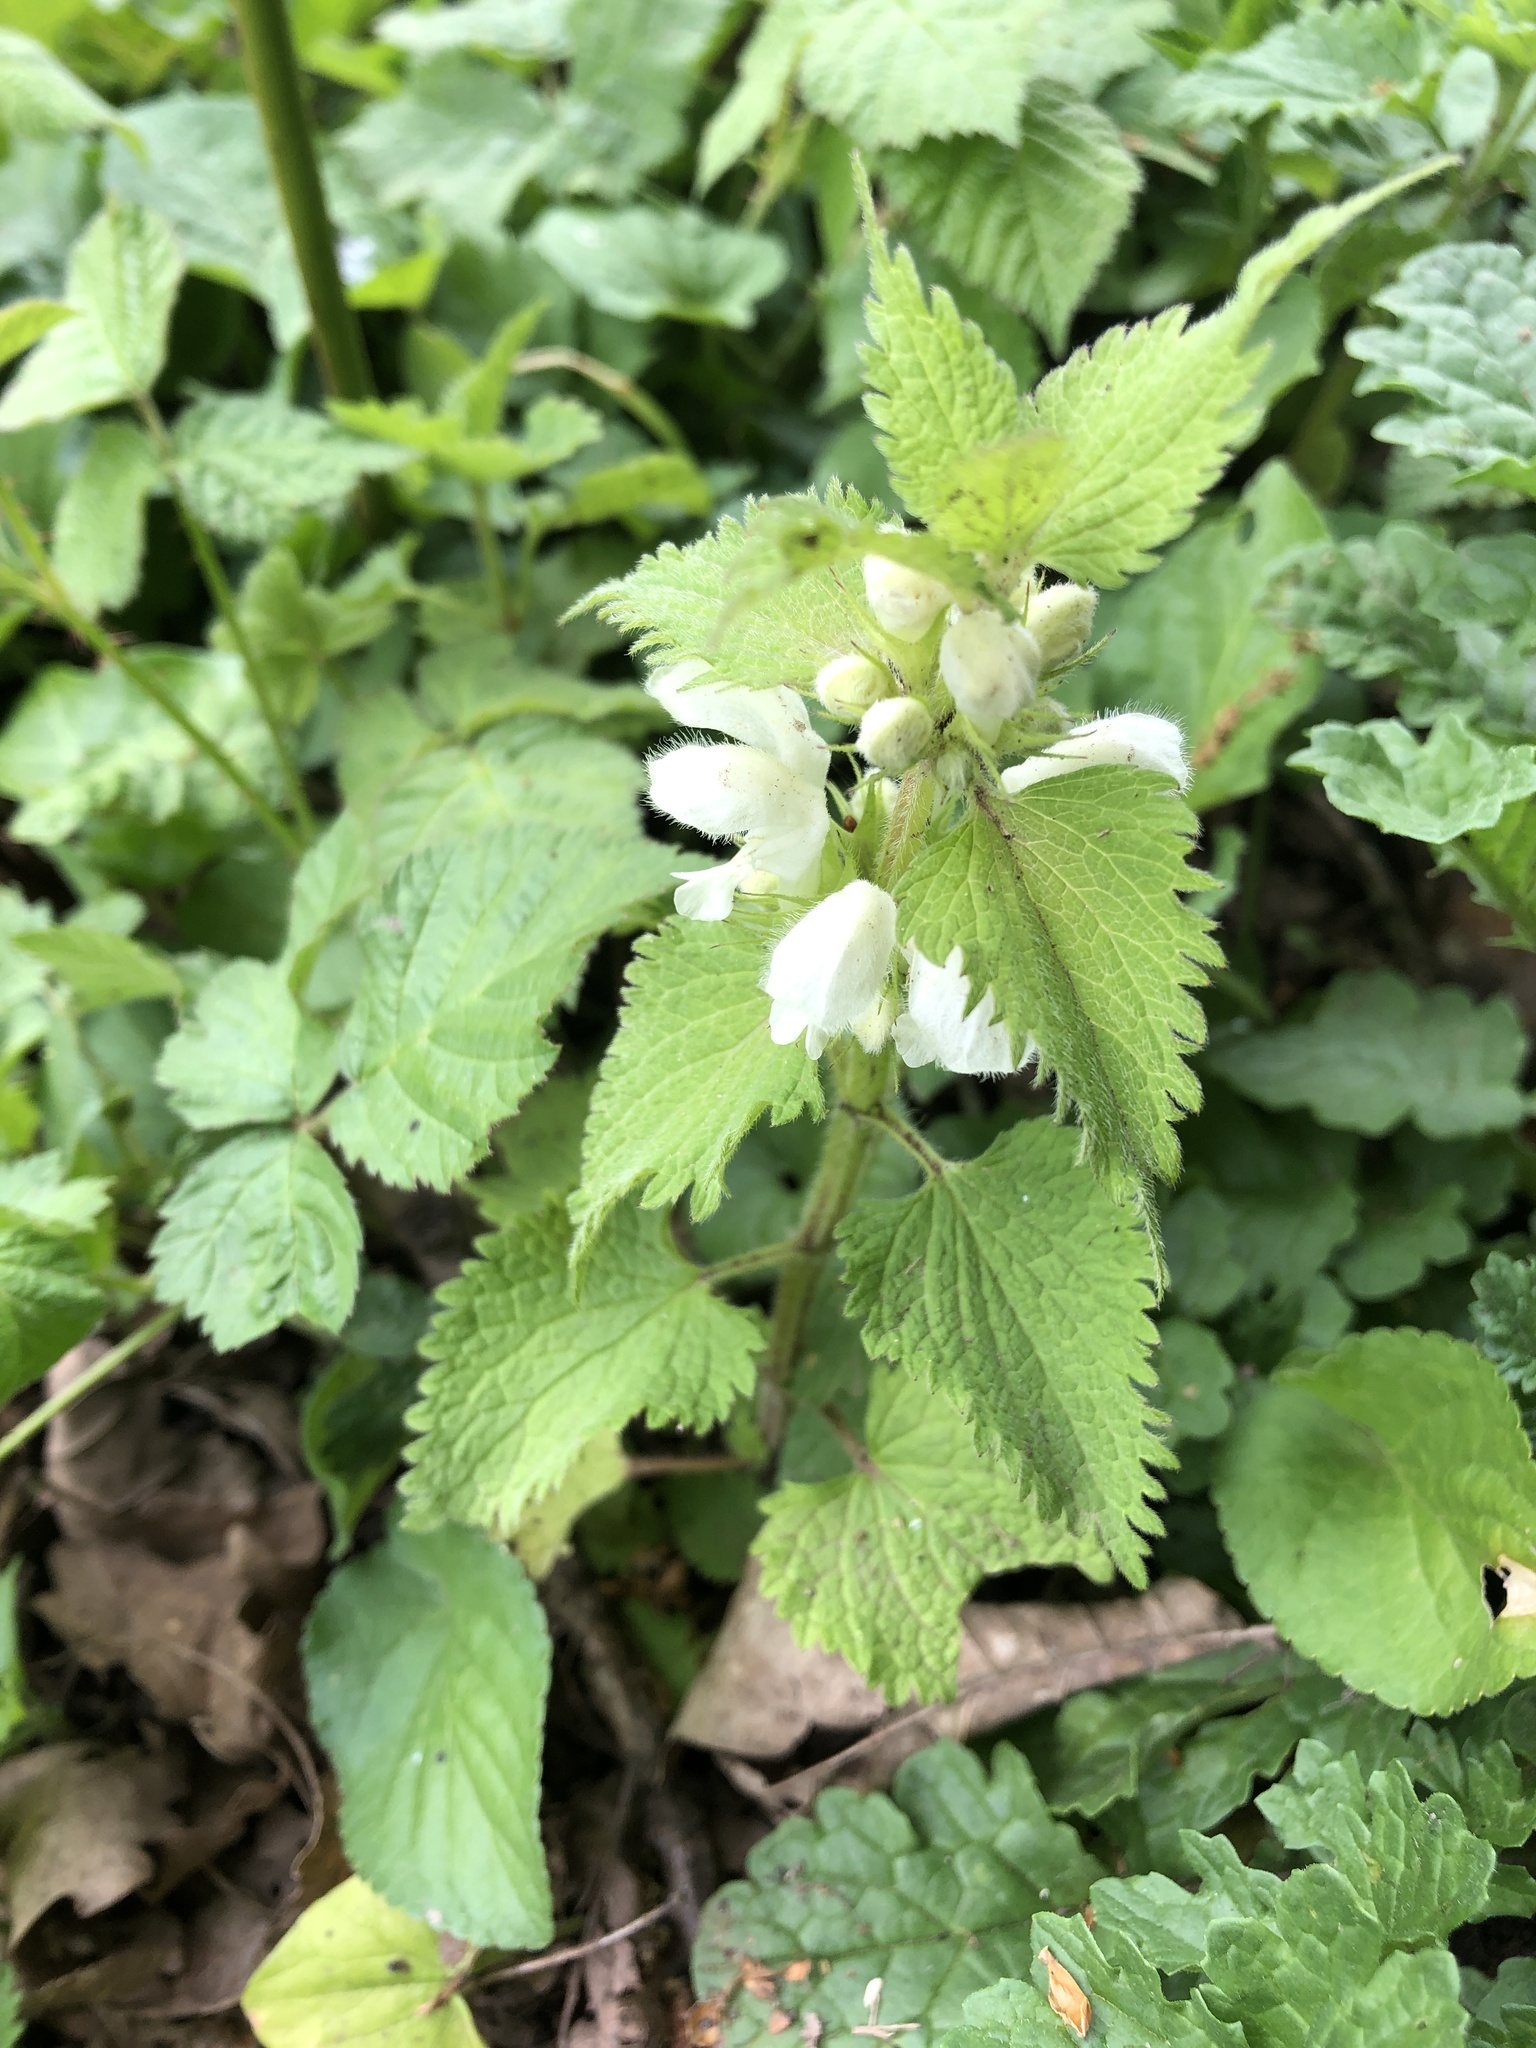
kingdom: Plantae
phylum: Tracheophyta
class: Magnoliopsida
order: Lamiales
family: Lamiaceae
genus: Lamium
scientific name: Lamium album
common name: White dead-nettle
